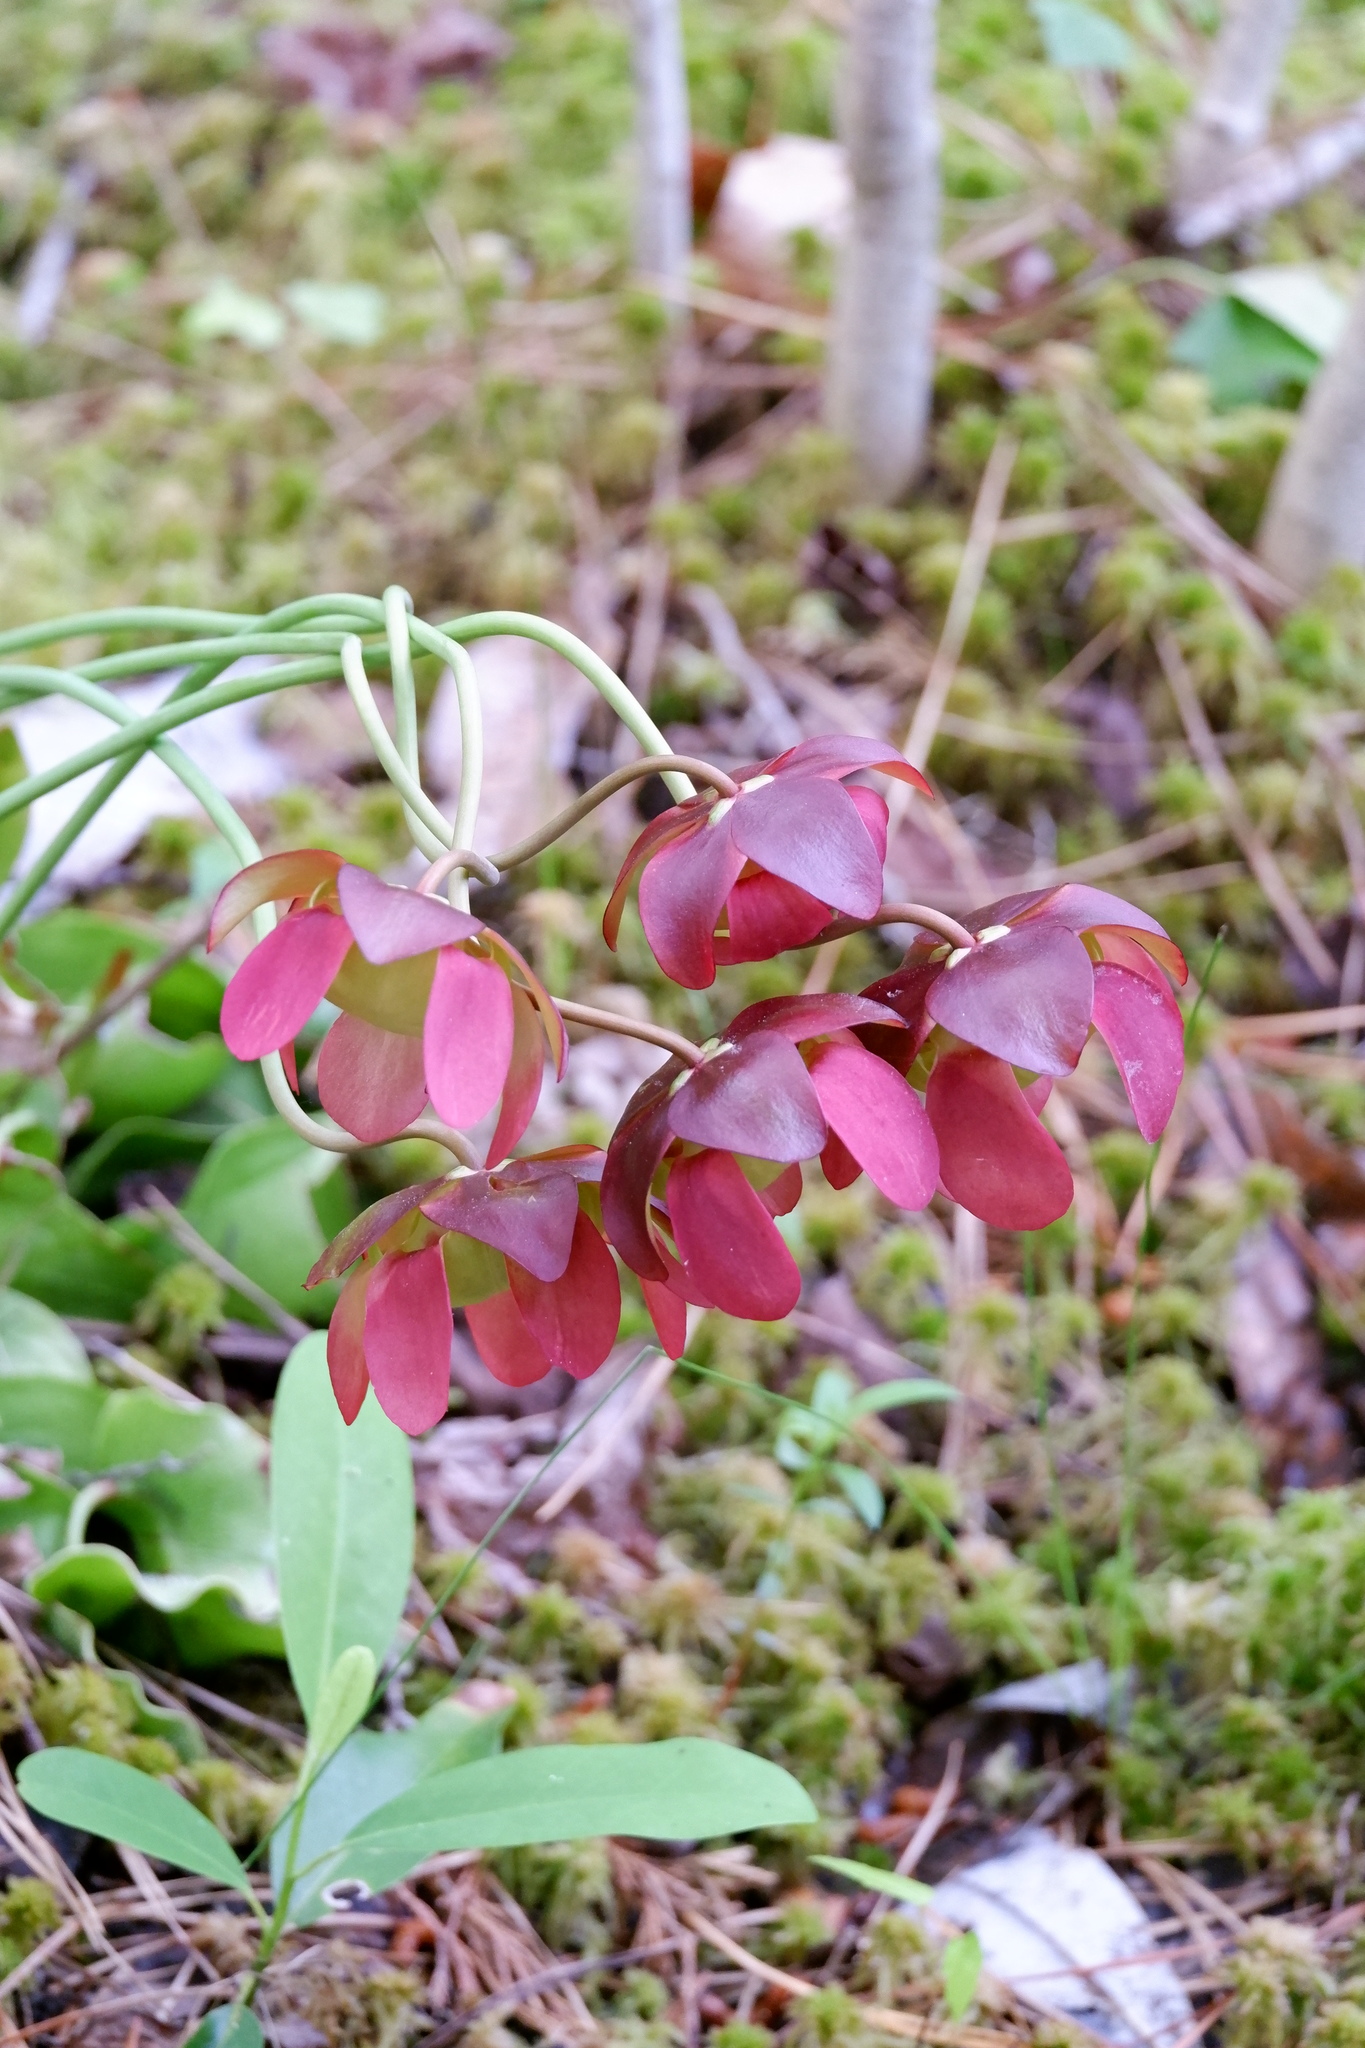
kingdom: Plantae
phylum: Tracheophyta
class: Magnoliopsida
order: Ericales
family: Sarraceniaceae
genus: Sarracenia
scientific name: Sarracenia purpurea
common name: Pitcherplant
